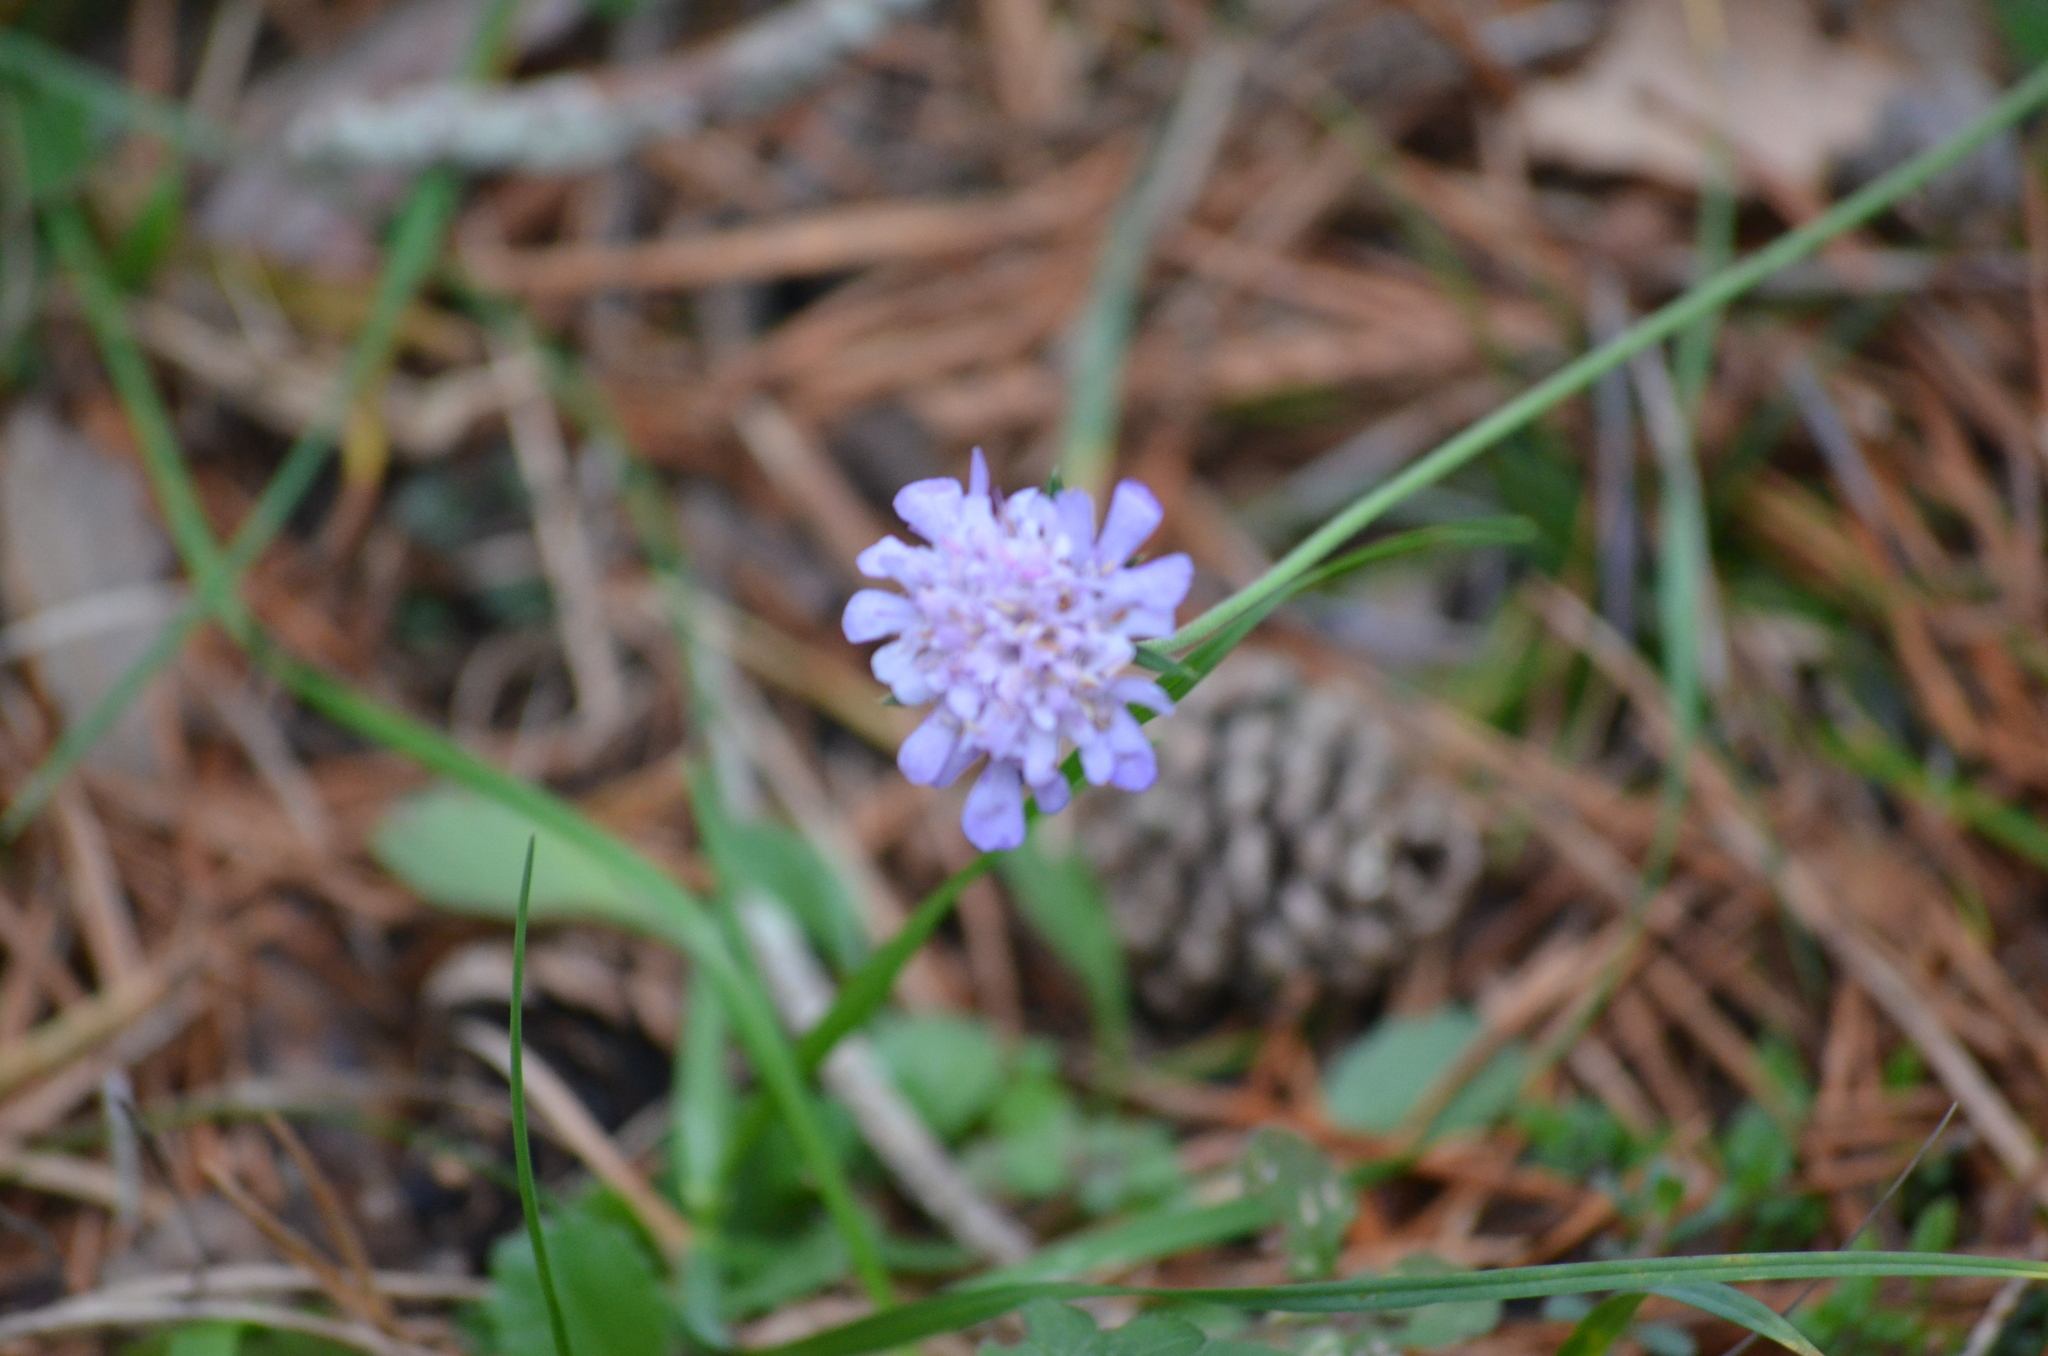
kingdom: Plantae
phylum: Tracheophyta
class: Magnoliopsida
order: Dipsacales
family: Caprifoliaceae
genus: Knautia
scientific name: Knautia arvensis
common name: Field scabiosa
